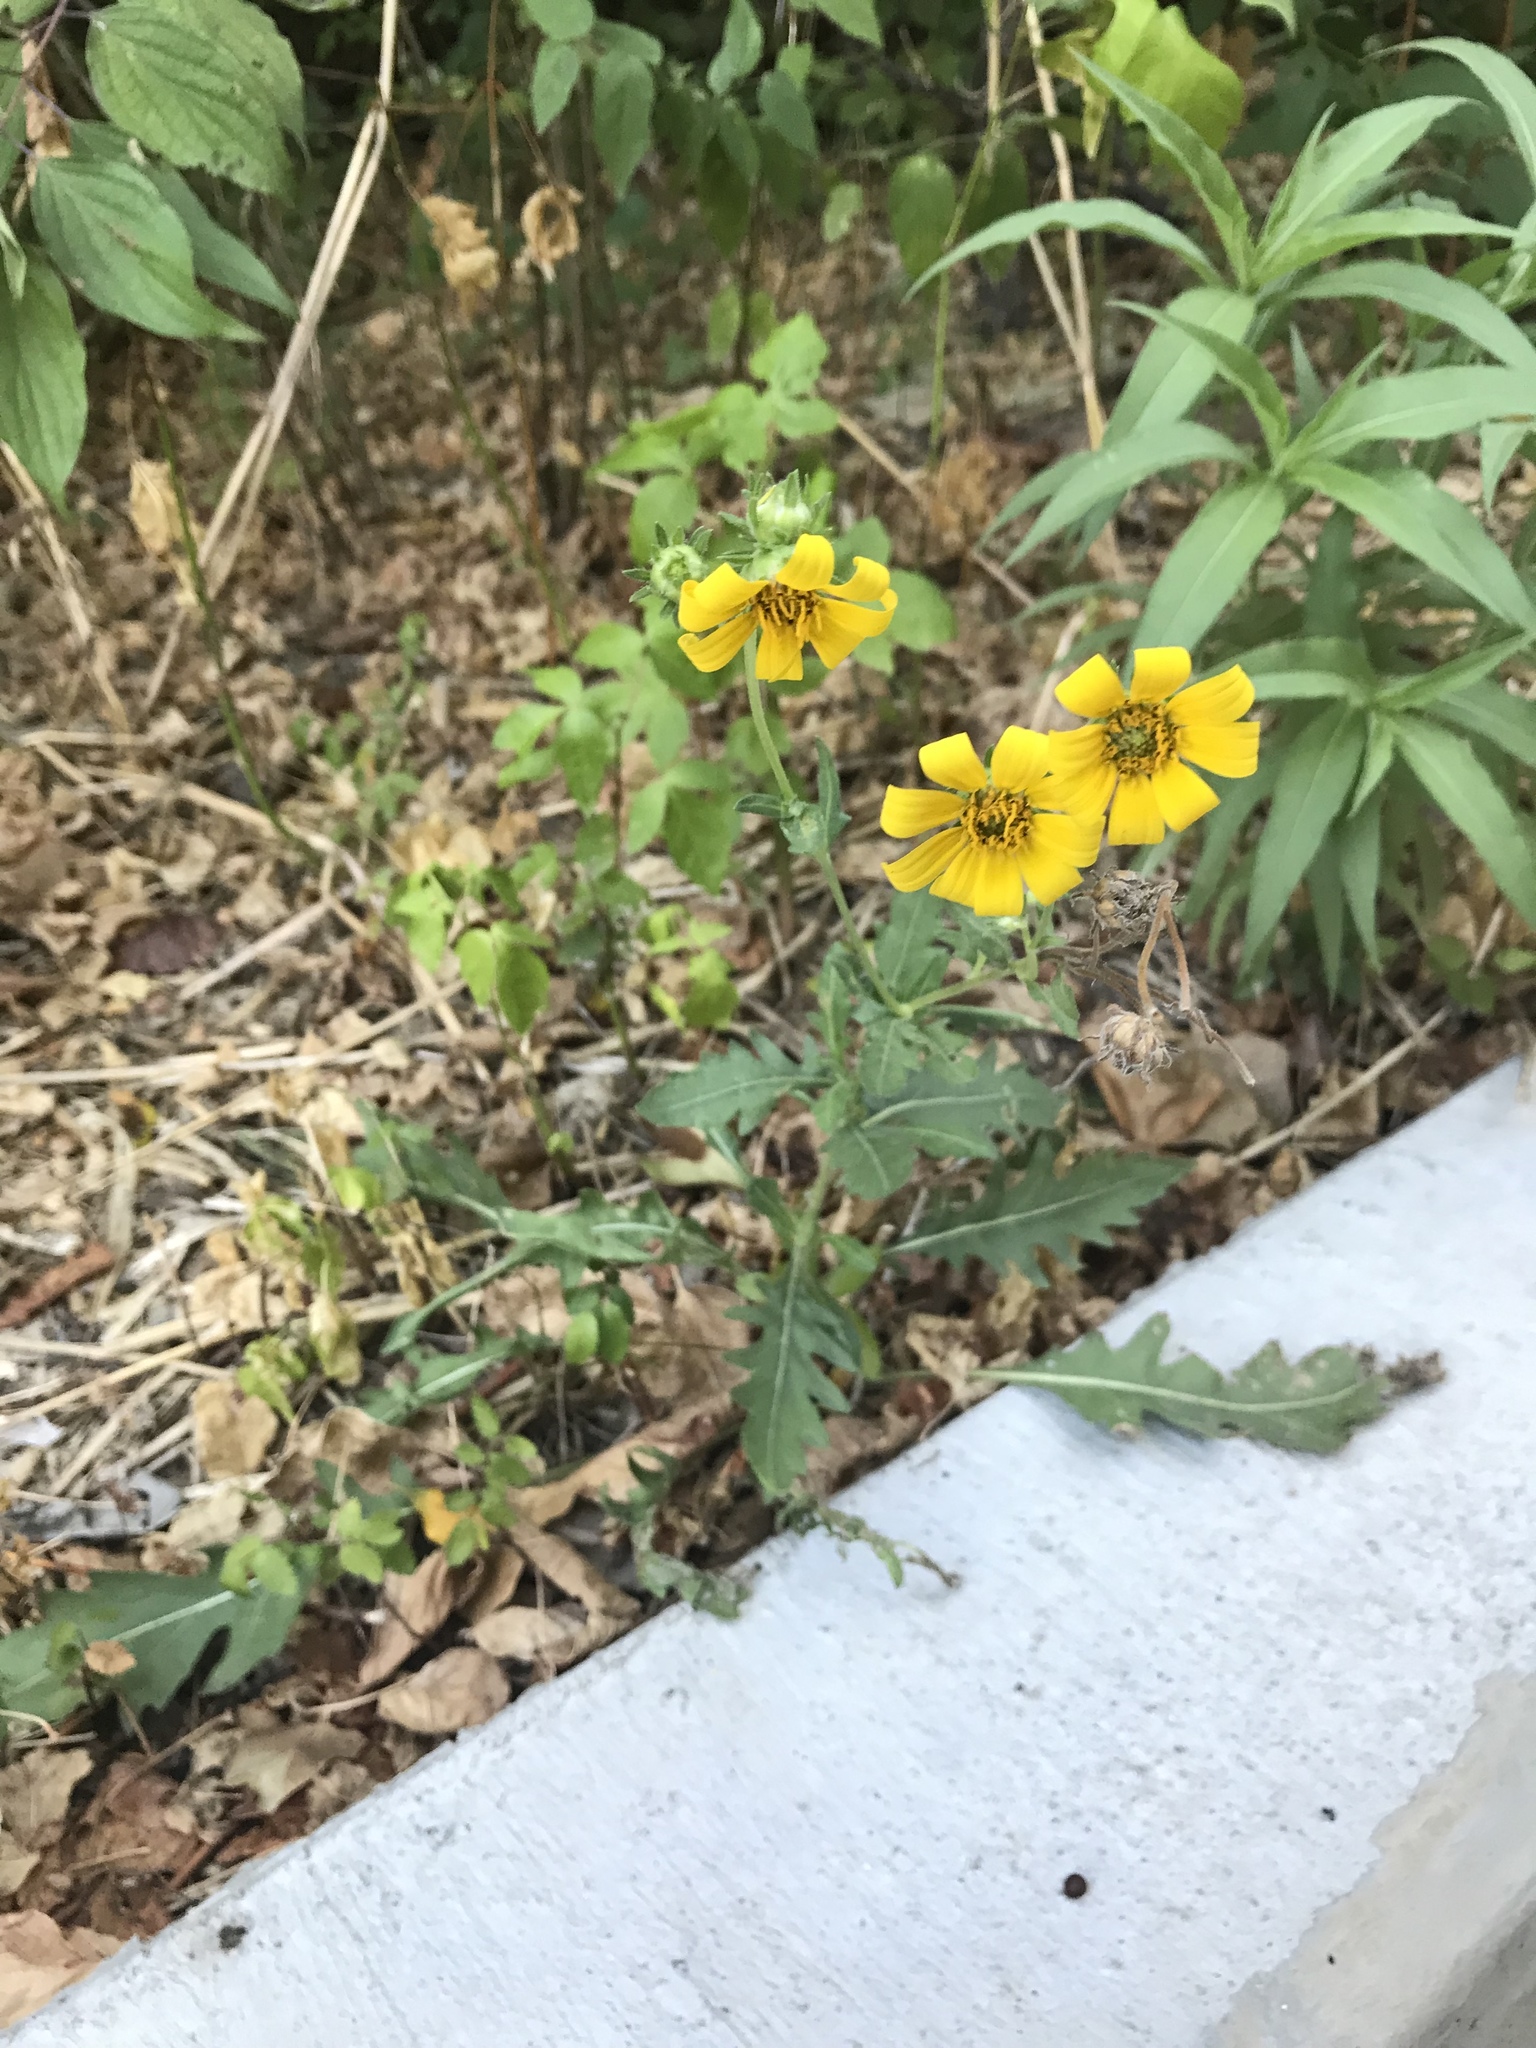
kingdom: Plantae
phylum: Tracheophyta
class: Magnoliopsida
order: Asterales
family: Asteraceae
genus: Engelmannia
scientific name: Engelmannia peristenia
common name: Engelmann's daisy
